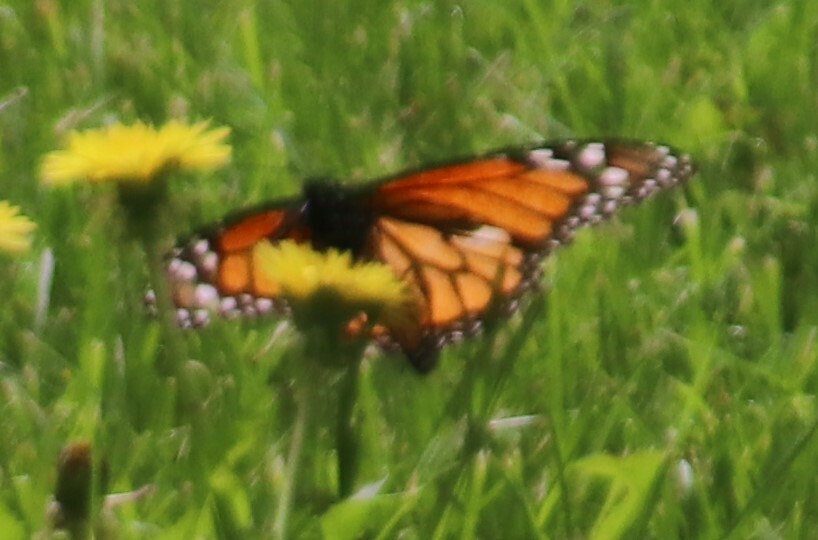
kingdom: Animalia
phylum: Arthropoda
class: Insecta
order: Lepidoptera
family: Nymphalidae
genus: Danaus
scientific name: Danaus plexippus
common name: Monarch
